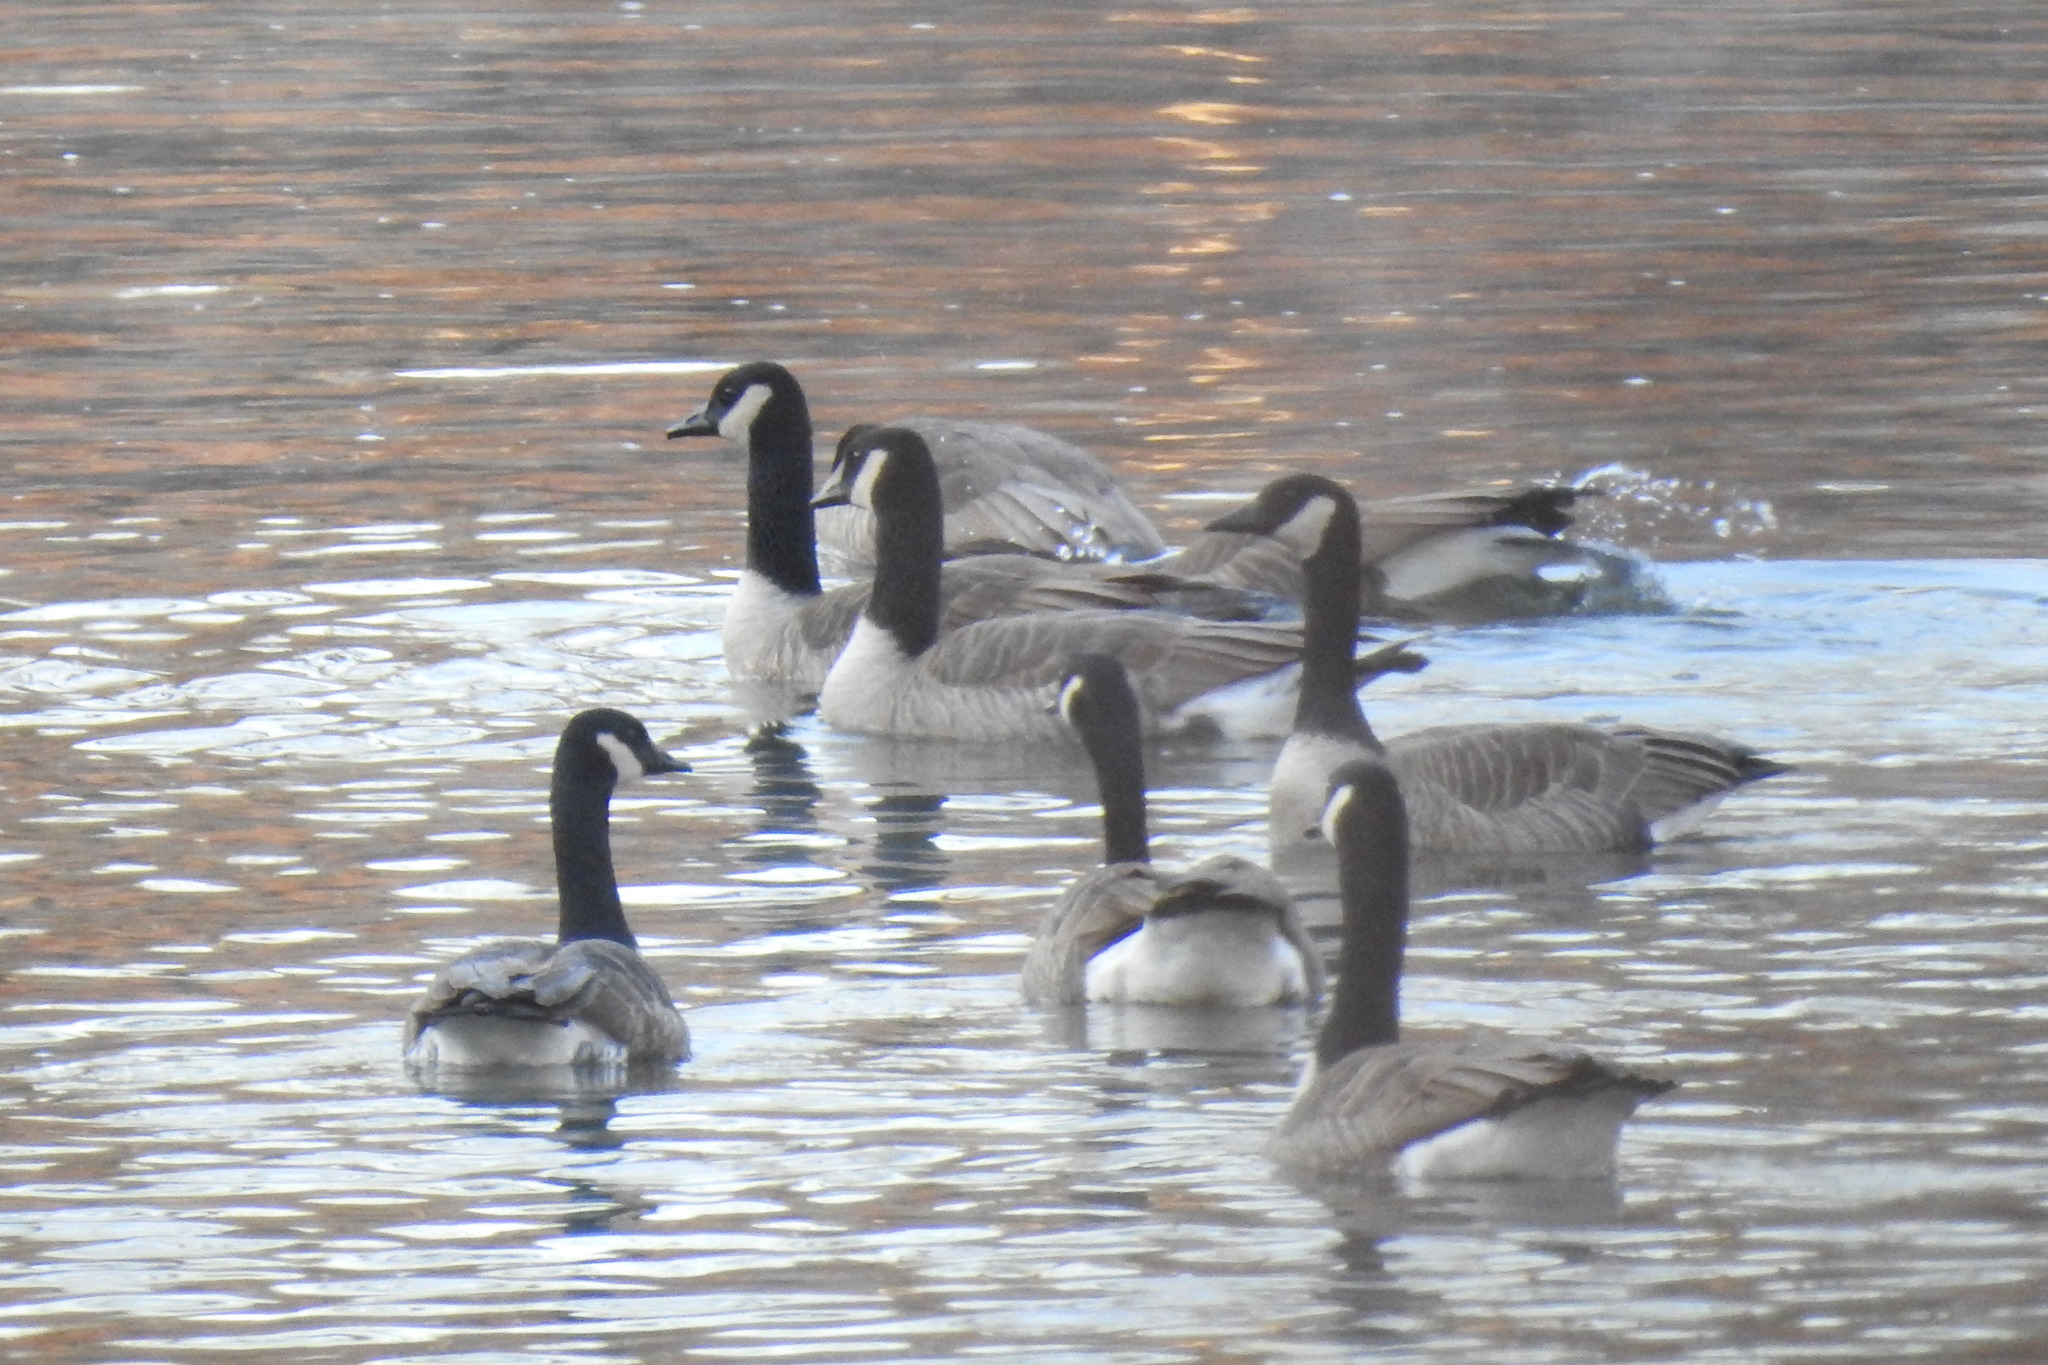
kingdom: Animalia
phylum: Chordata
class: Aves
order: Anseriformes
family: Anatidae
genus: Branta
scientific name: Branta canadensis
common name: Canada goose
